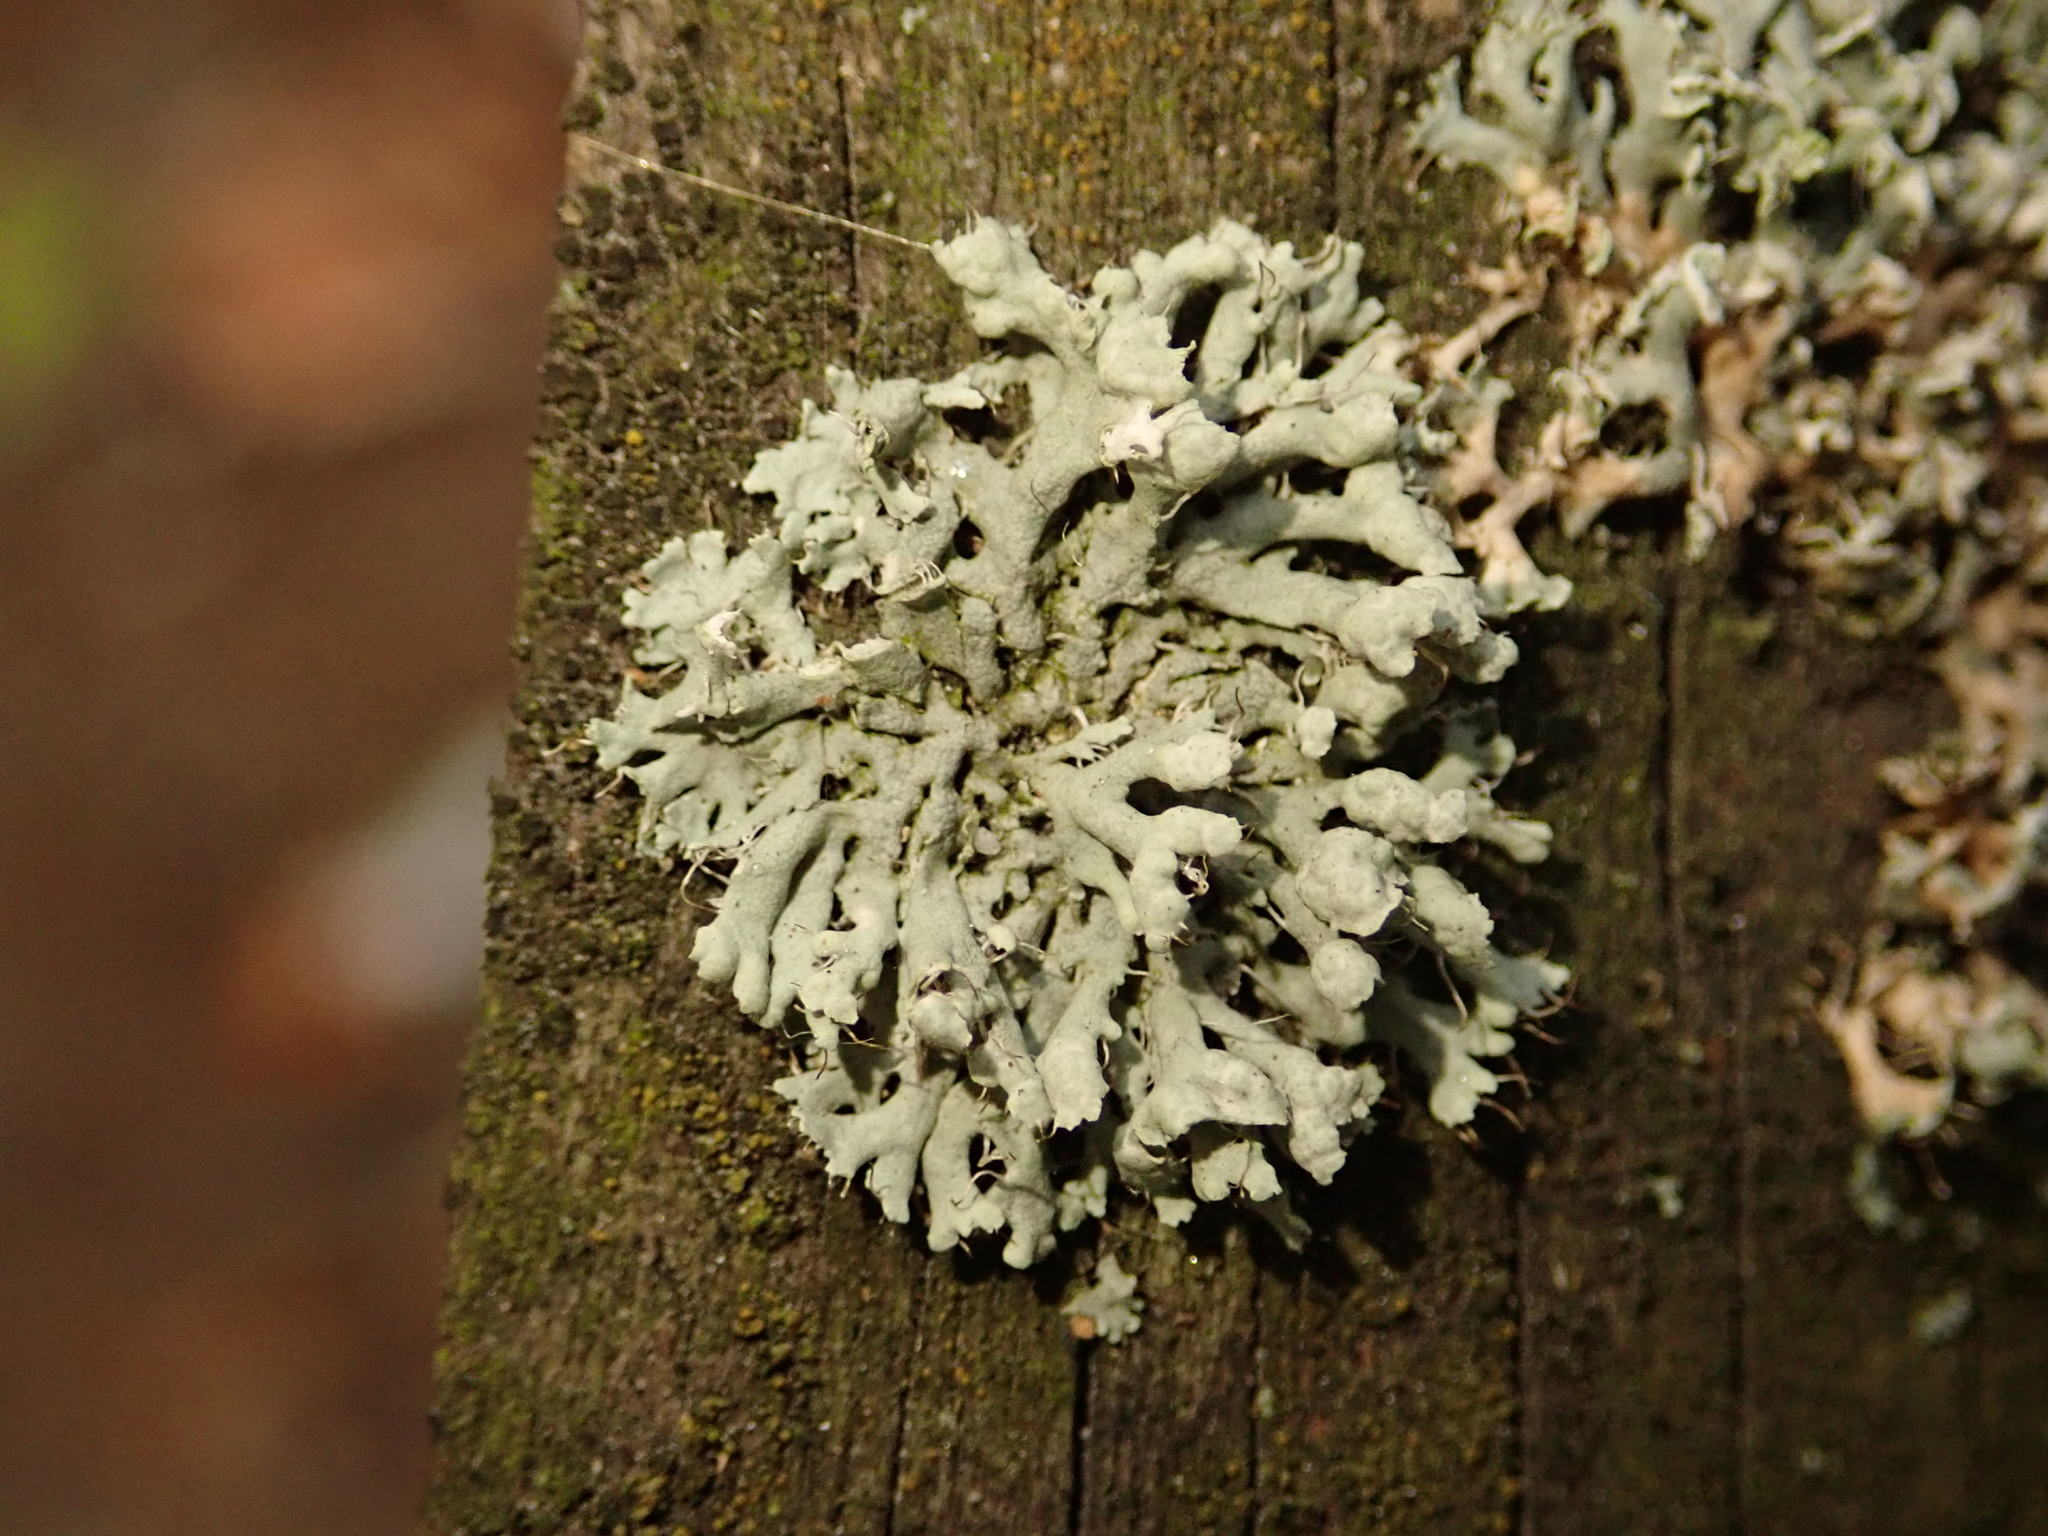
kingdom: Fungi
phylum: Ascomycota
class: Lecanoromycetes
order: Caliciales
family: Physciaceae
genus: Physcia
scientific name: Physcia adscendens
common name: Hooded rosette lichen
